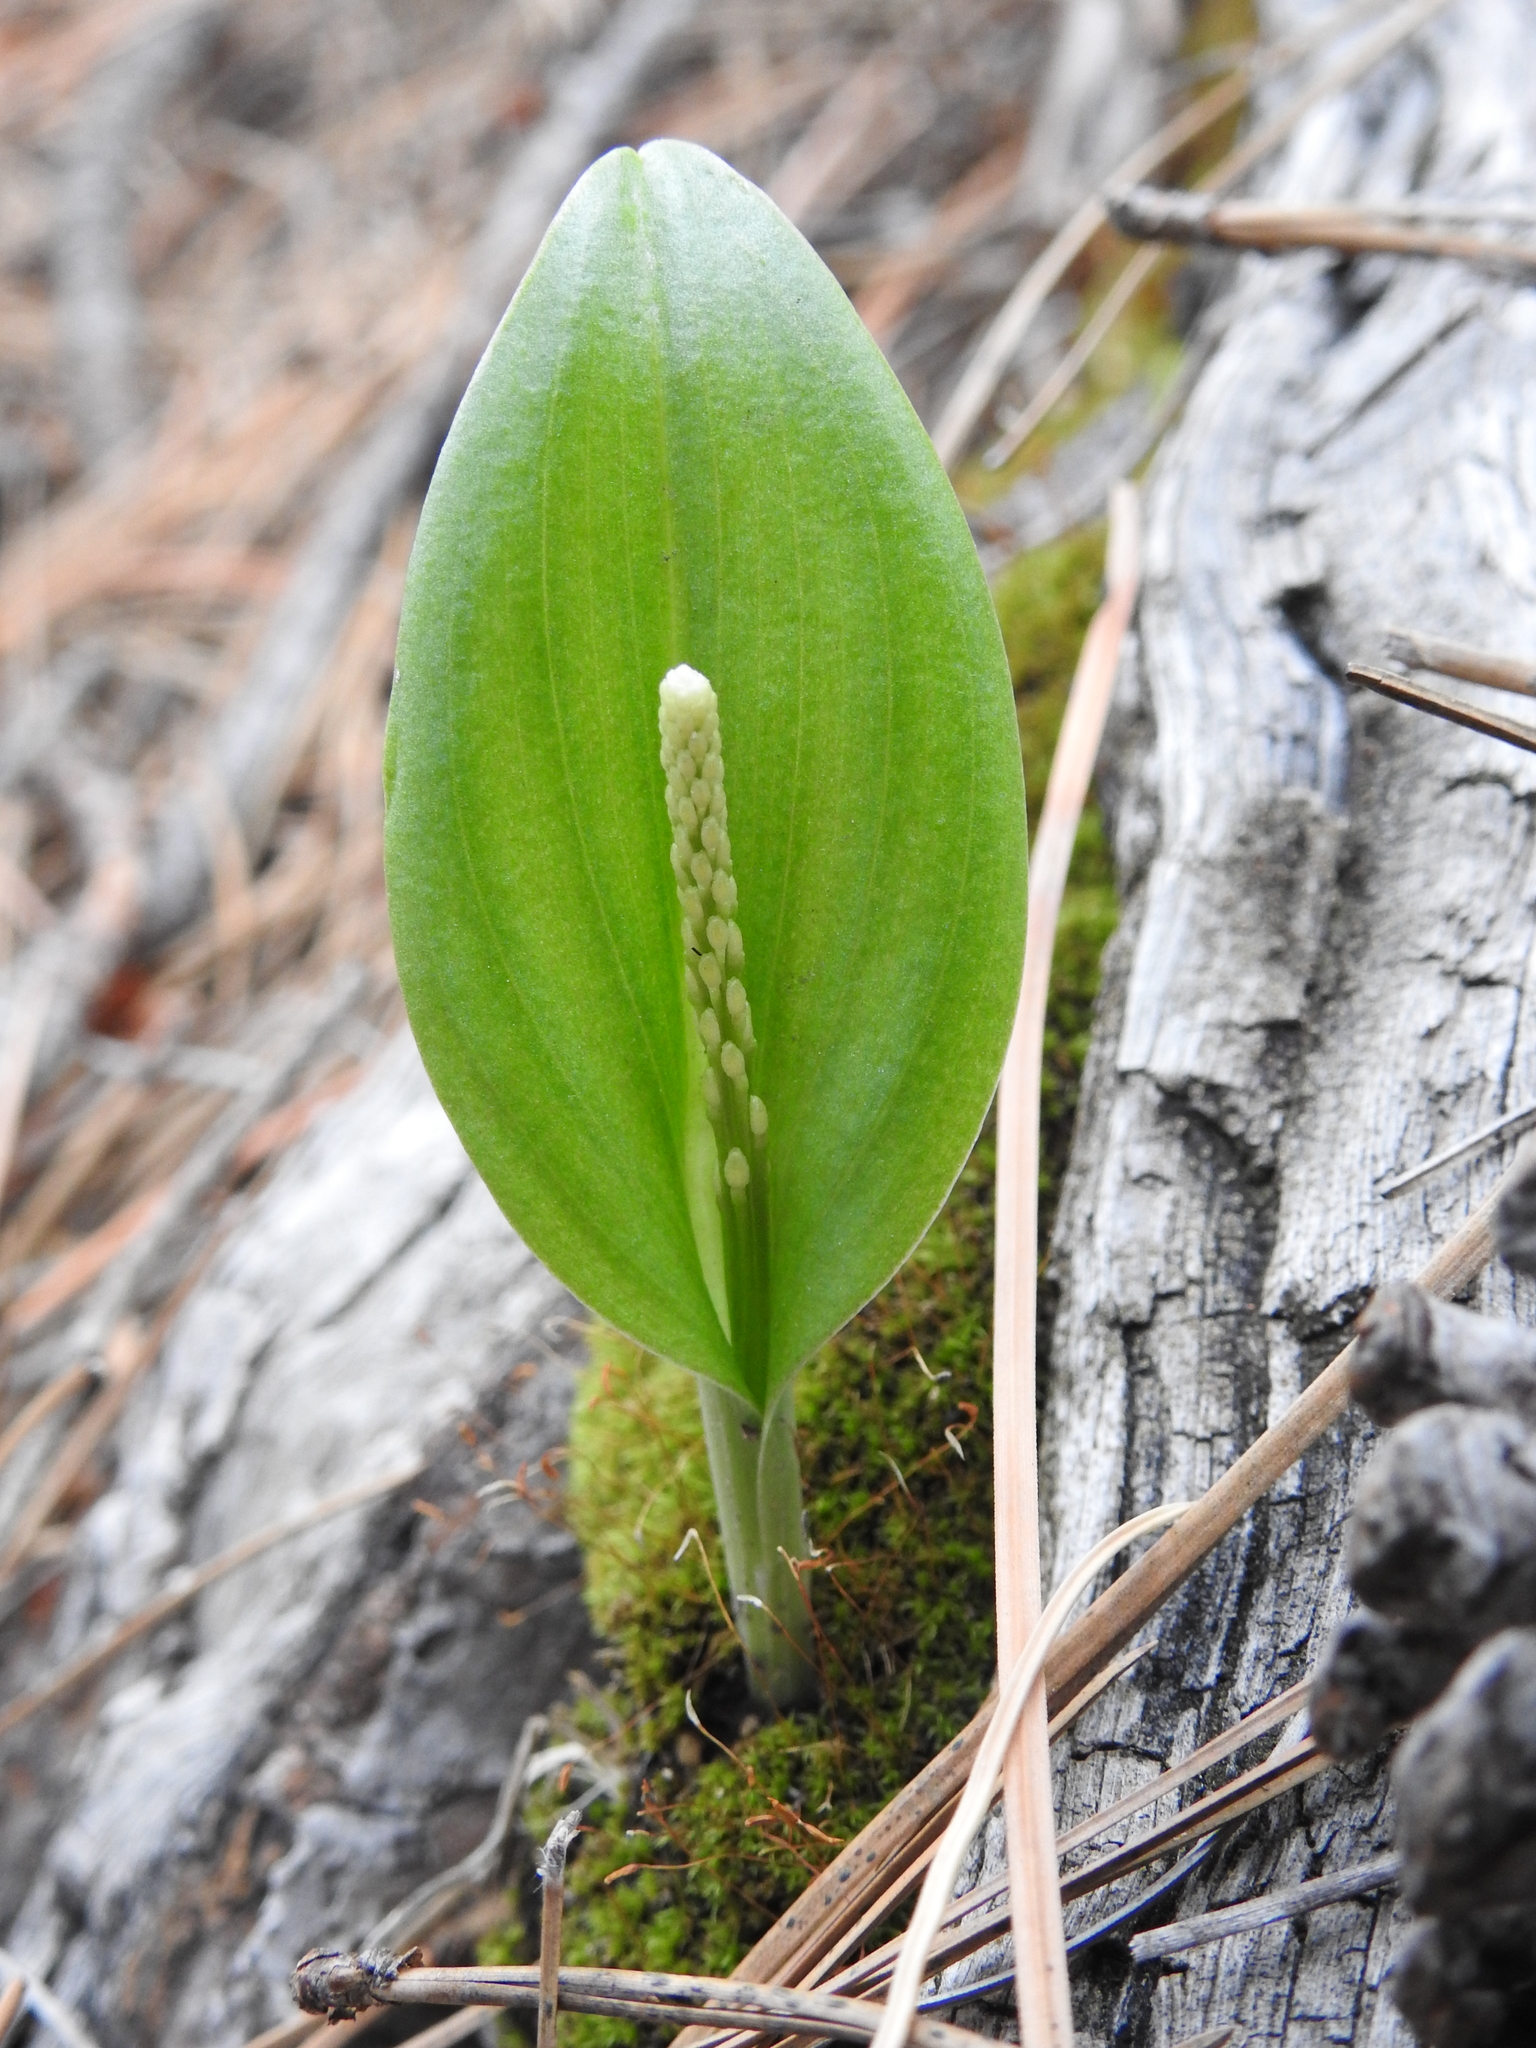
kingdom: Plantae
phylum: Tracheophyta
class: Liliopsida
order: Asparagales
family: Orchidaceae
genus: Malaxis
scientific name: Malaxis macrostachya
